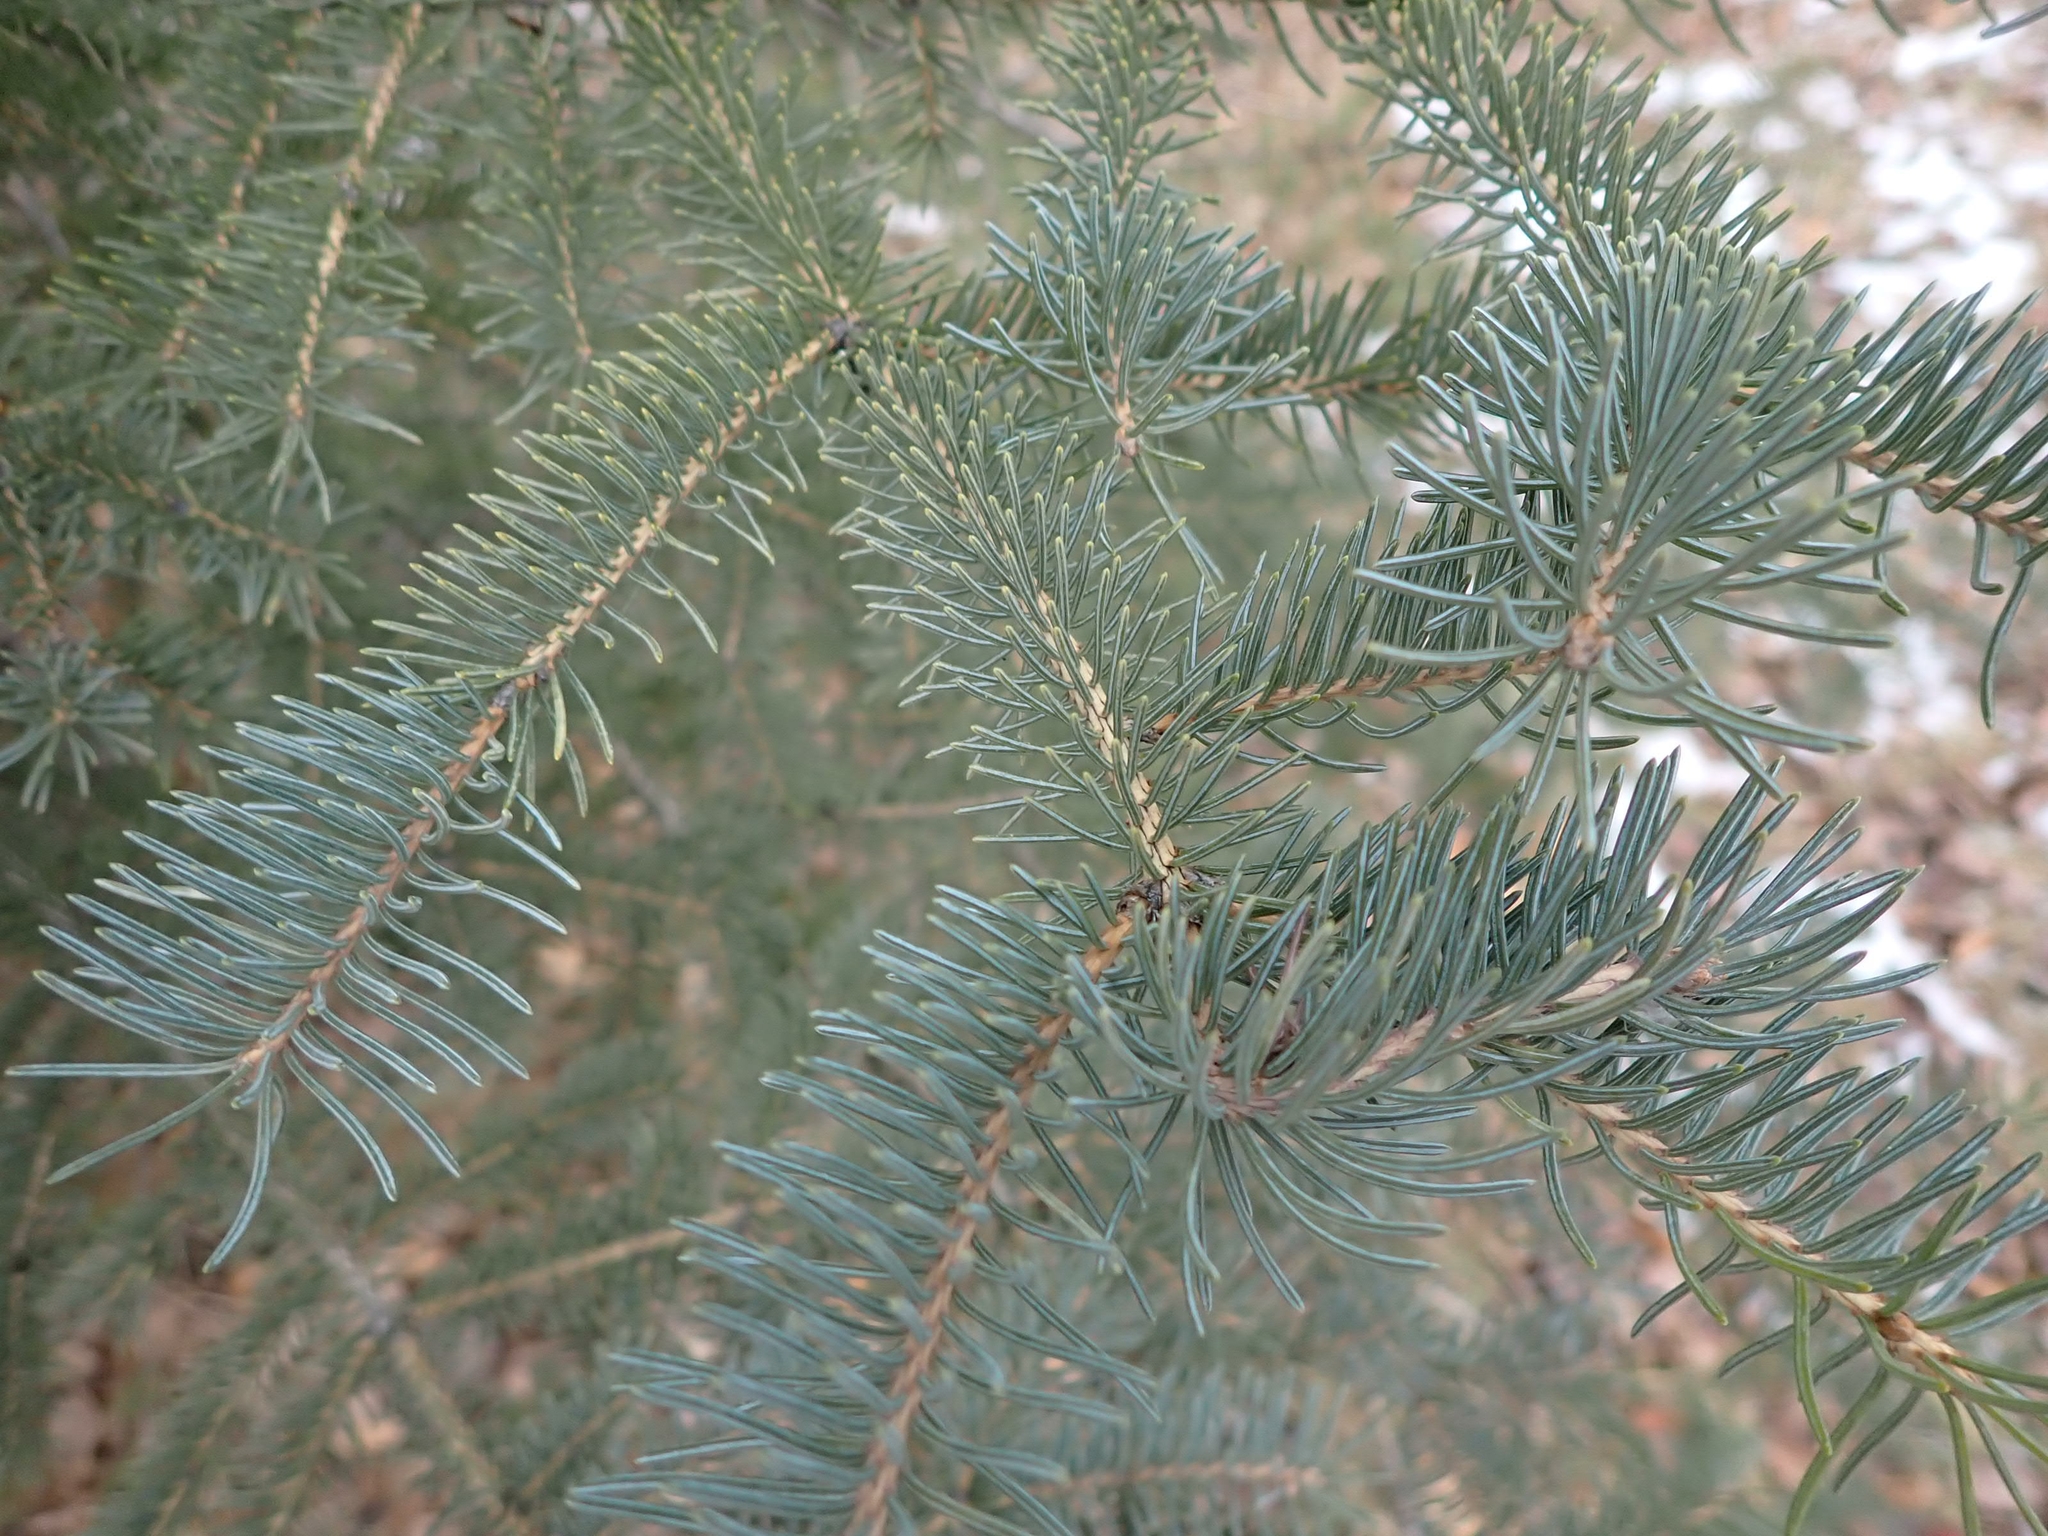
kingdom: Plantae
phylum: Tracheophyta
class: Pinopsida
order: Pinales
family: Pinaceae
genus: Abies
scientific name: Abies balsamea
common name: Balsam fir
